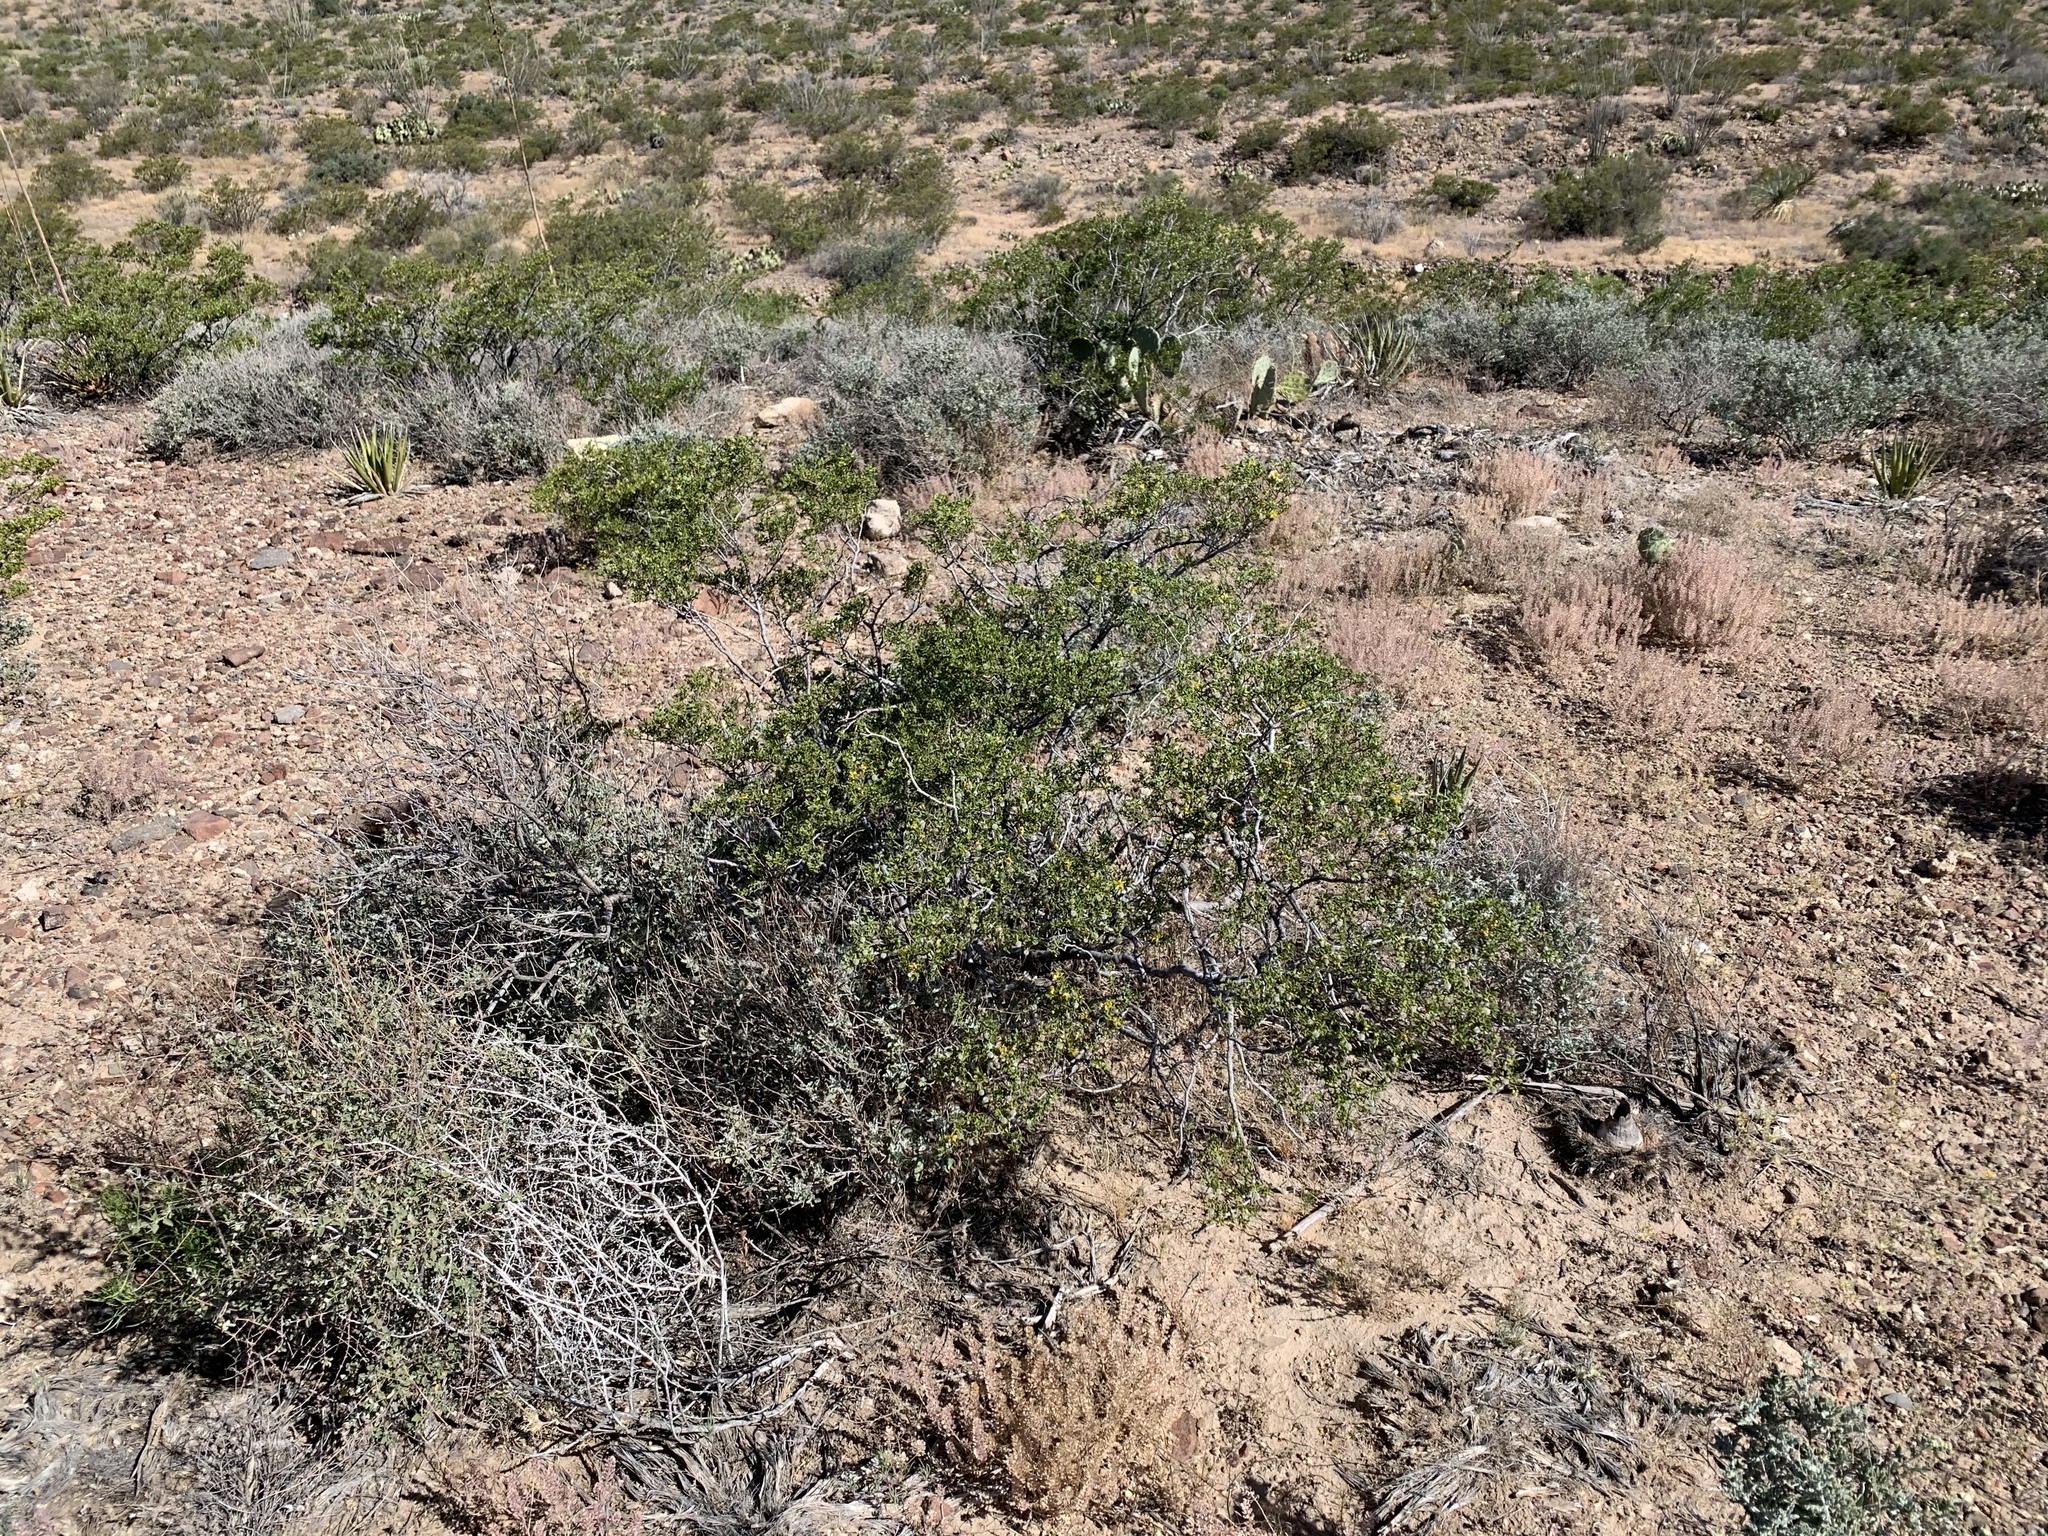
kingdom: Plantae
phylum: Tracheophyta
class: Magnoliopsida
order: Zygophyllales
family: Zygophyllaceae
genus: Larrea
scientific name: Larrea tridentata
